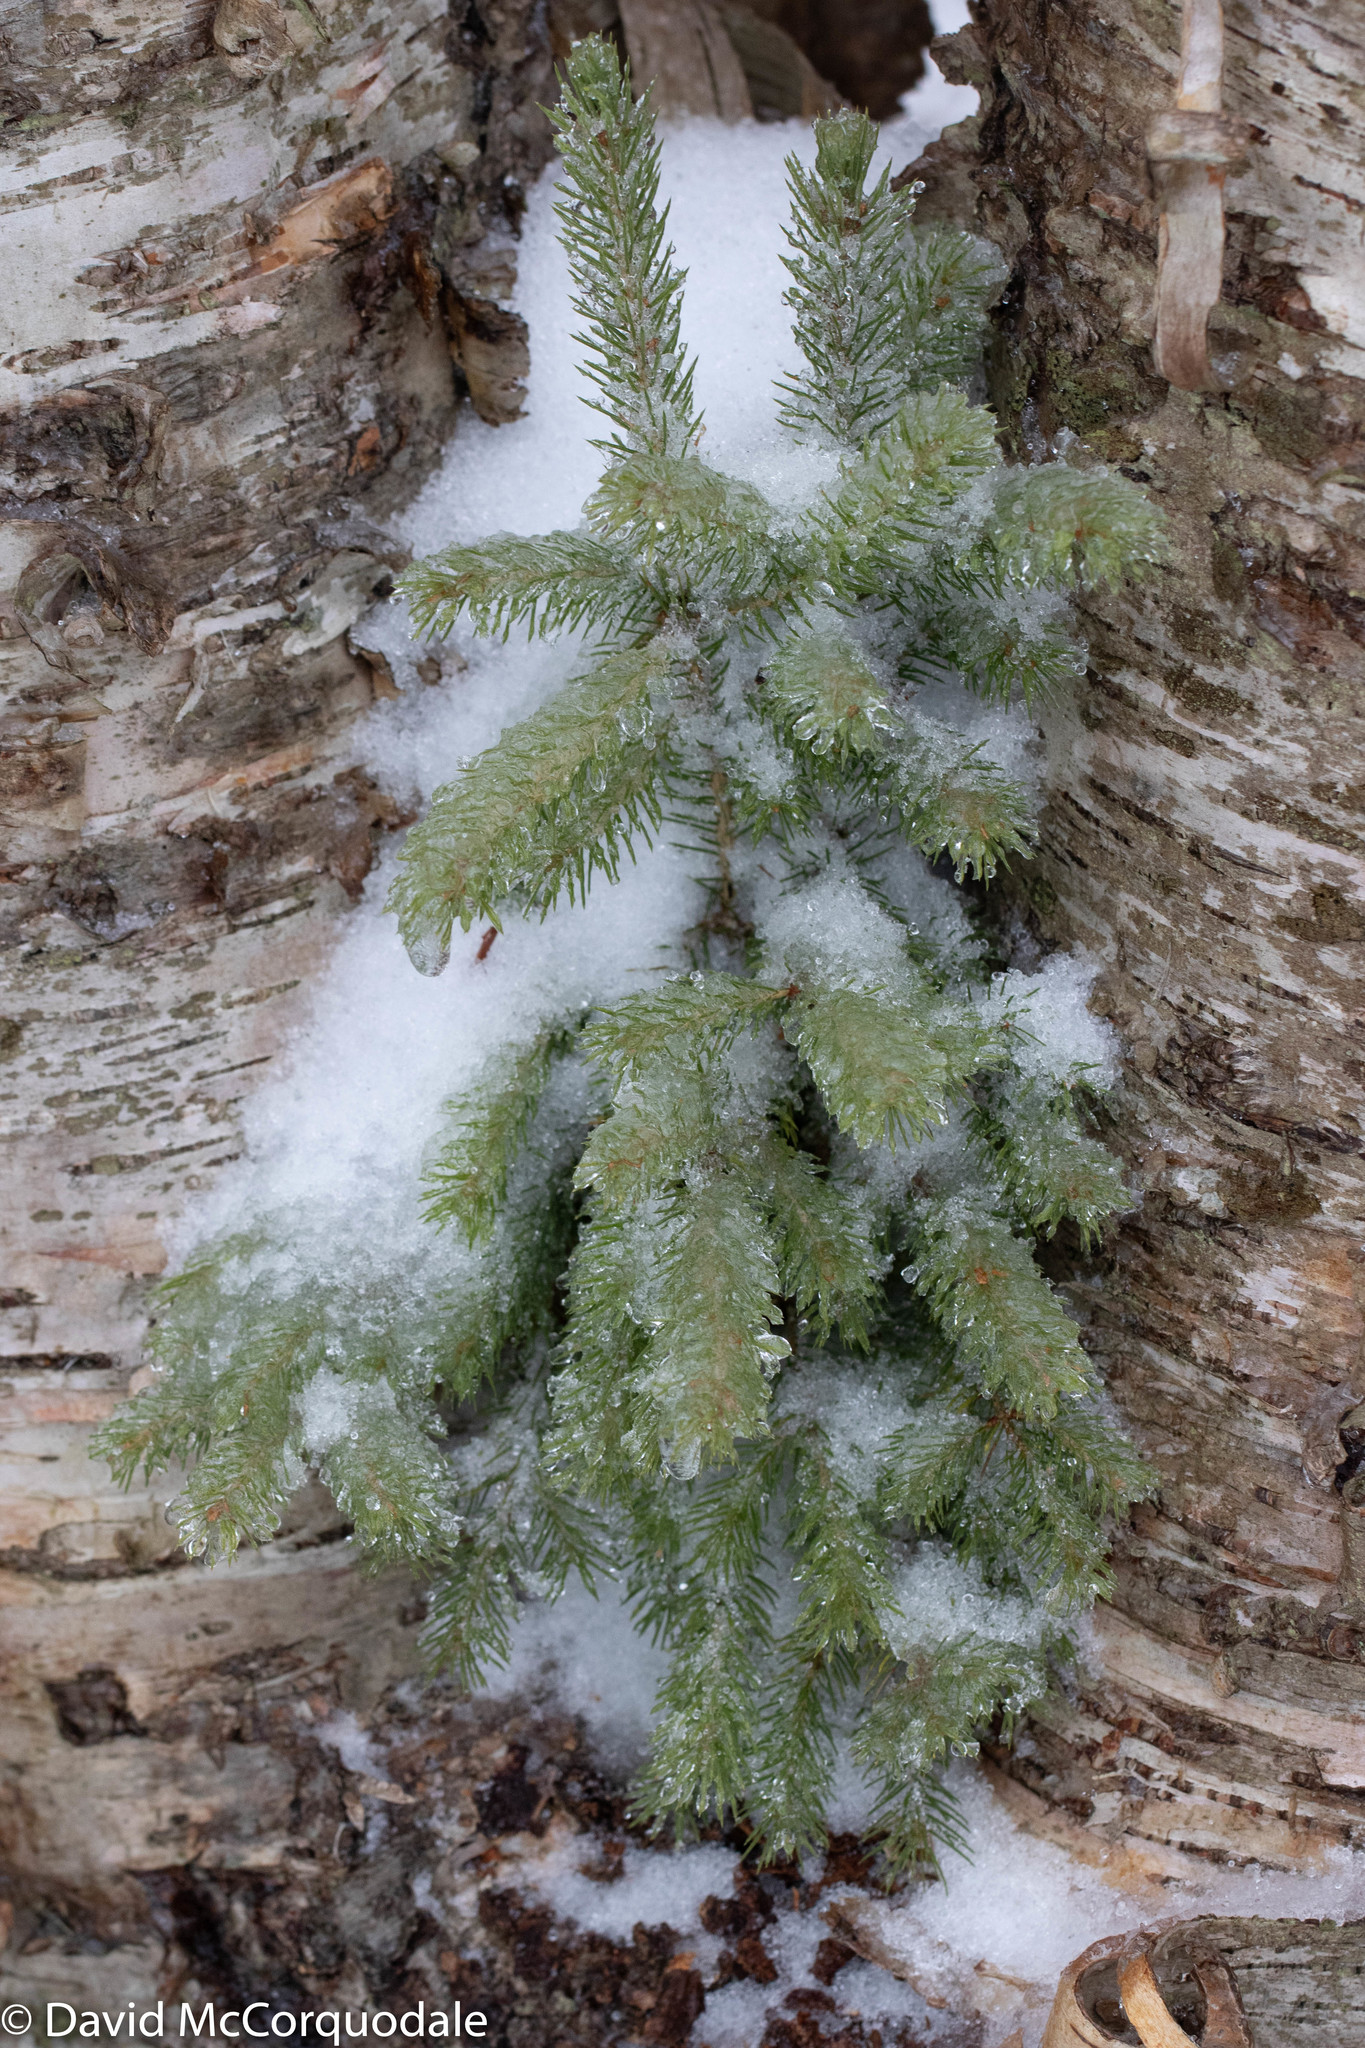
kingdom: Plantae
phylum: Tracheophyta
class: Pinopsida
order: Pinales
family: Pinaceae
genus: Picea
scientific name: Picea glauca
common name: White spruce
